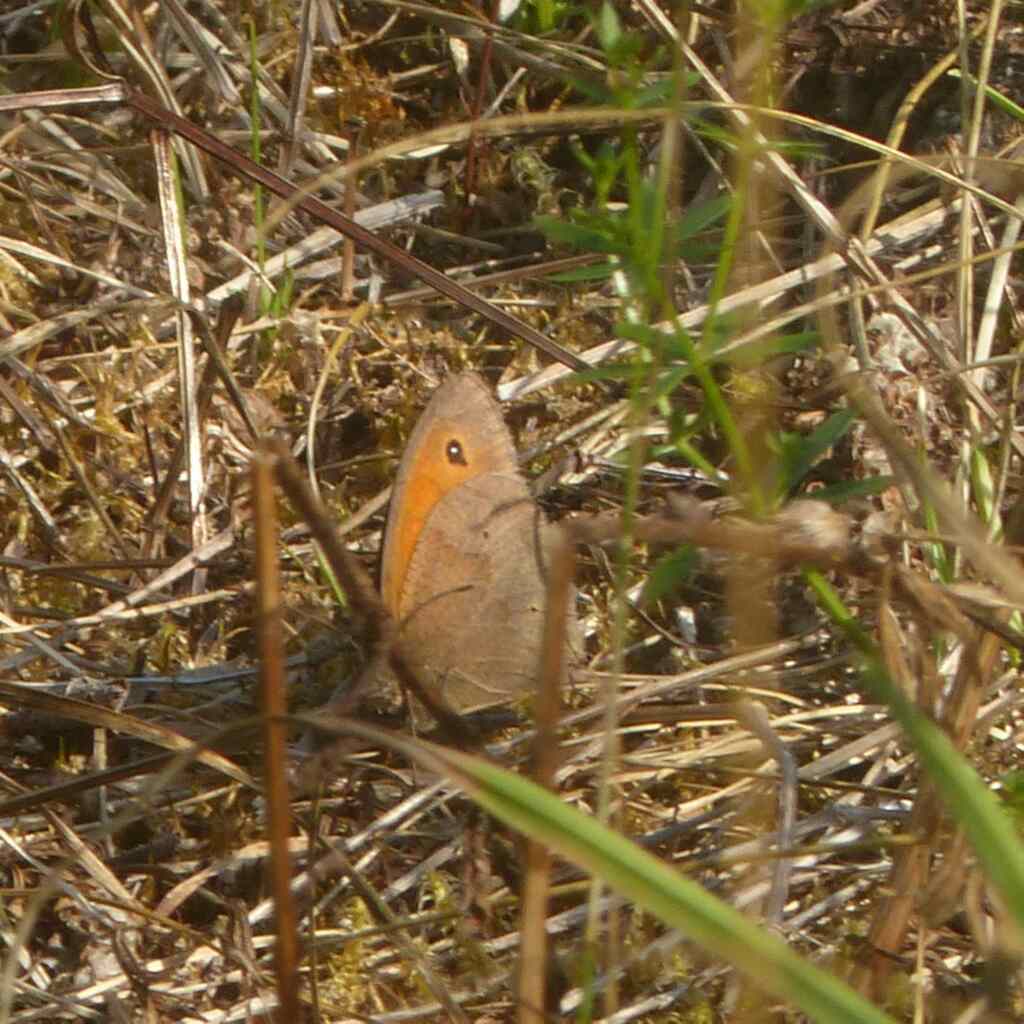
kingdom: Animalia
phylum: Arthropoda
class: Insecta
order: Lepidoptera
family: Nymphalidae
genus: Maniola
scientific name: Maniola jurtina
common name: Meadow brown
